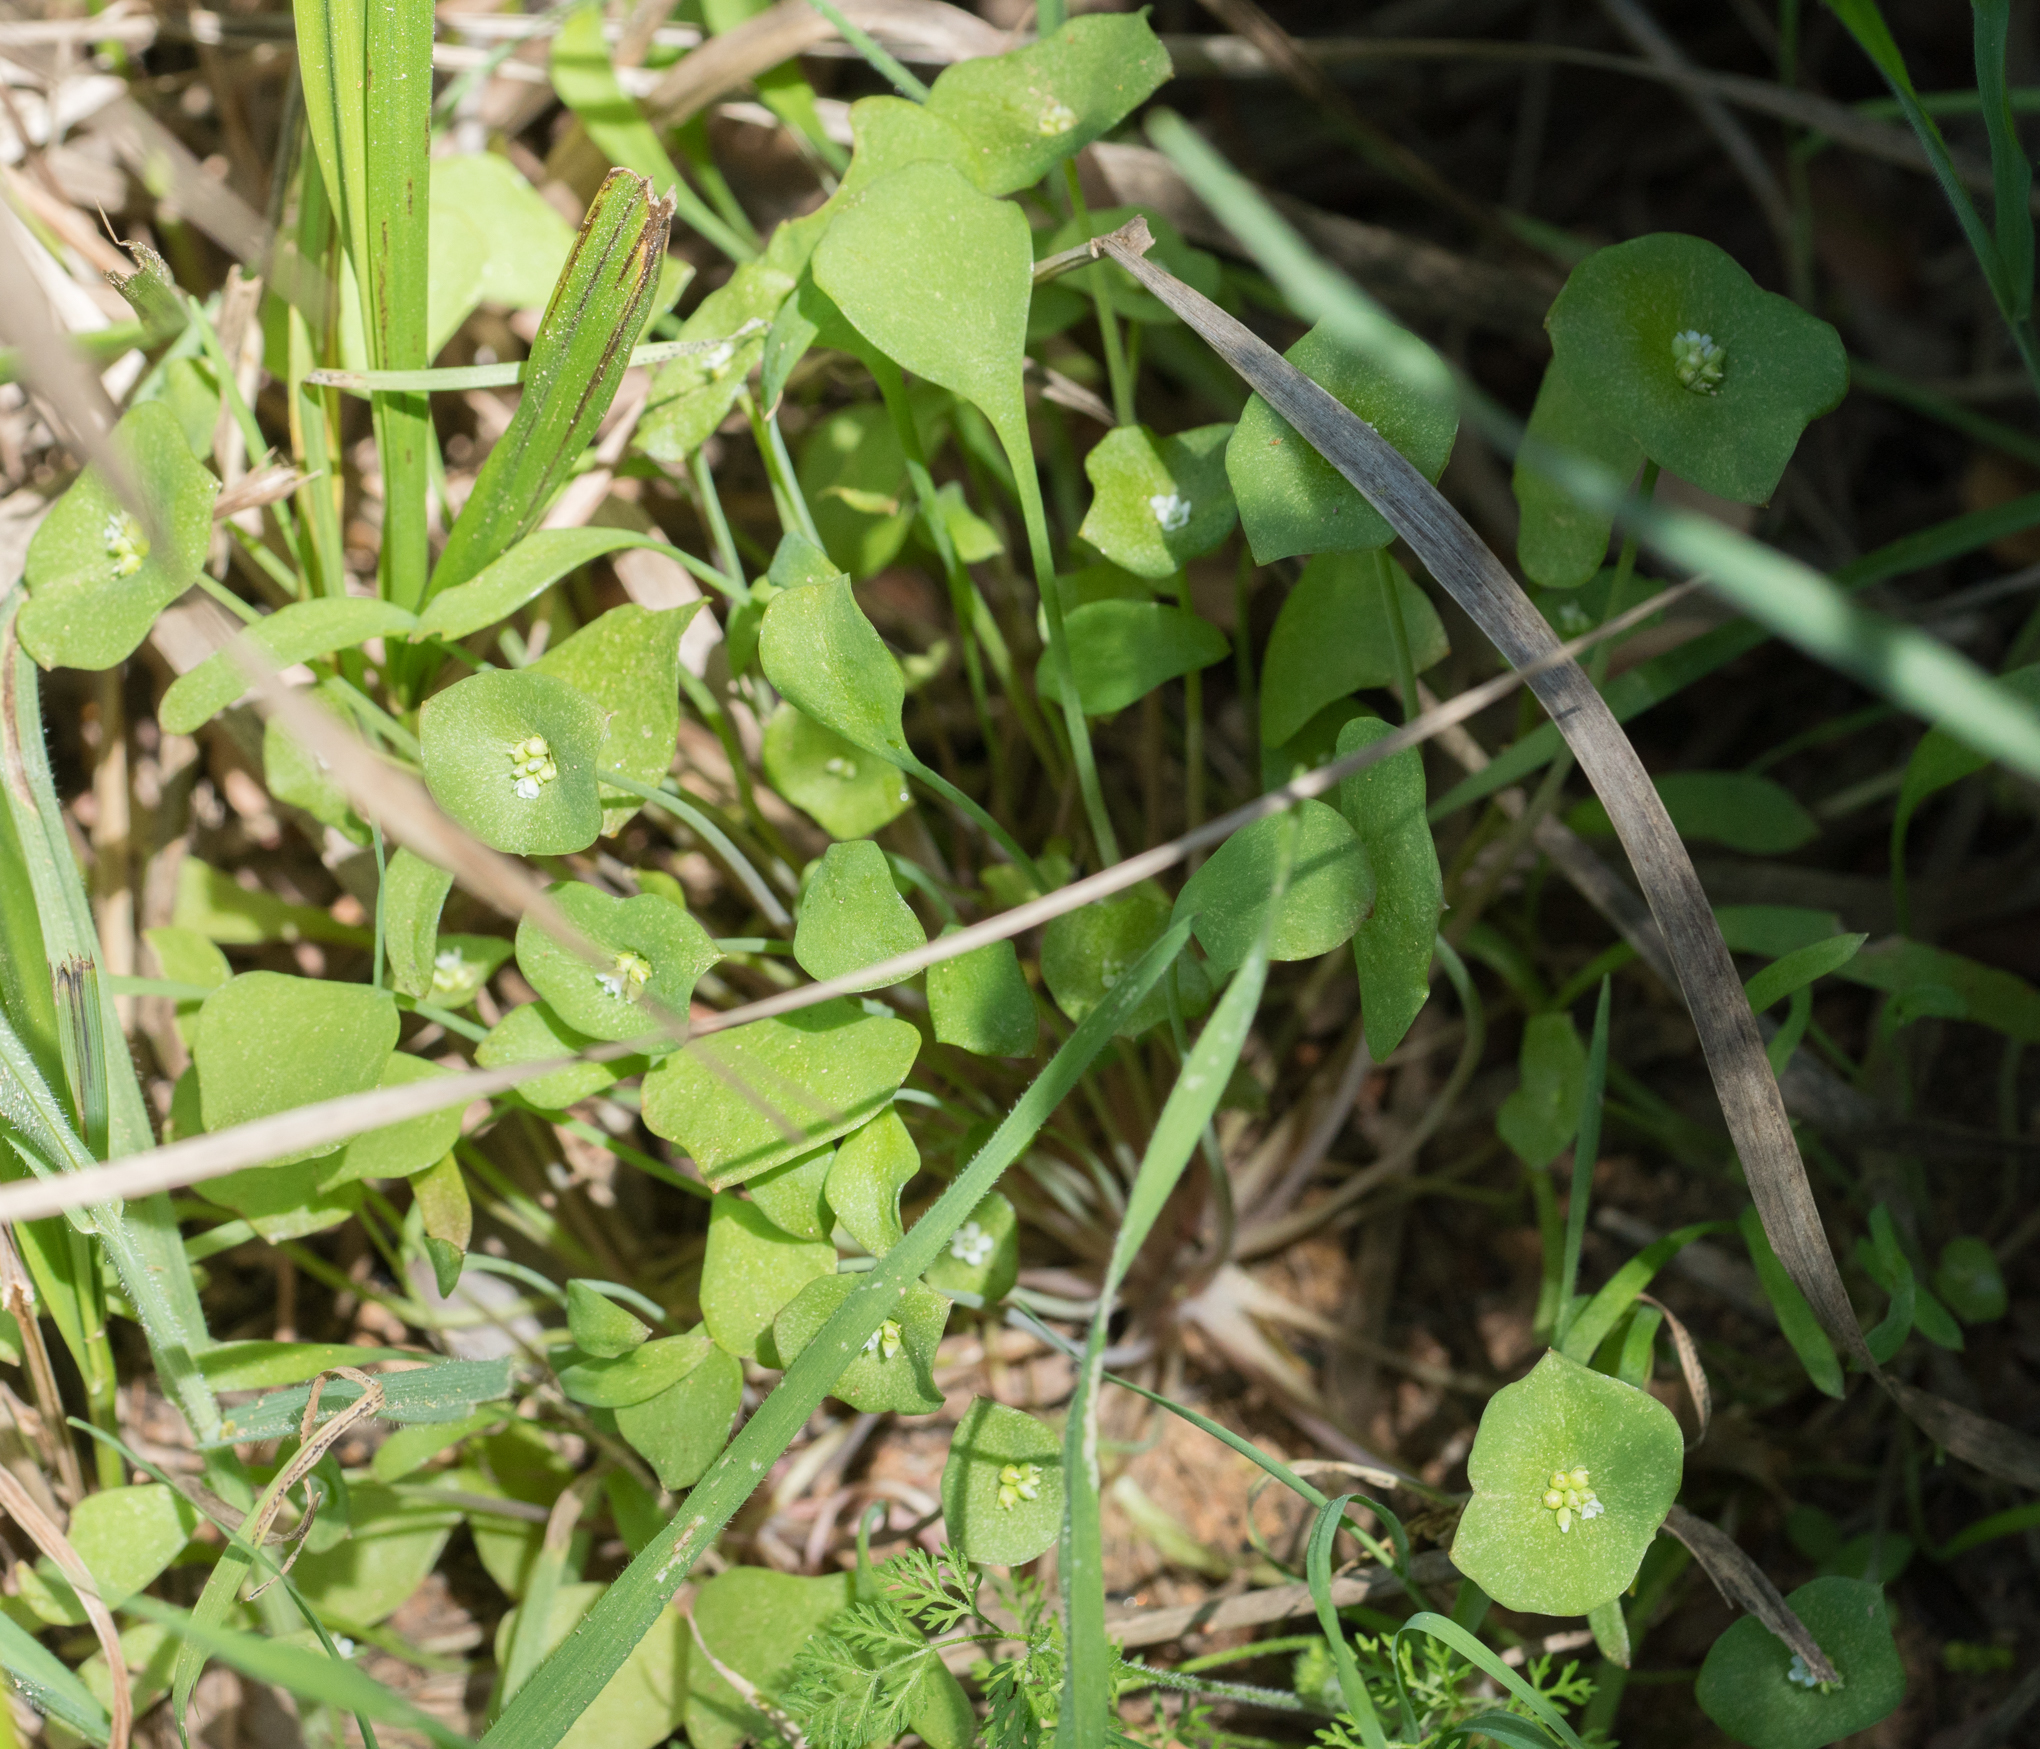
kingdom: Plantae
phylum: Tracheophyta
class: Magnoliopsida
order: Caryophyllales
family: Montiaceae
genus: Claytonia
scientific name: Claytonia perfoliata
